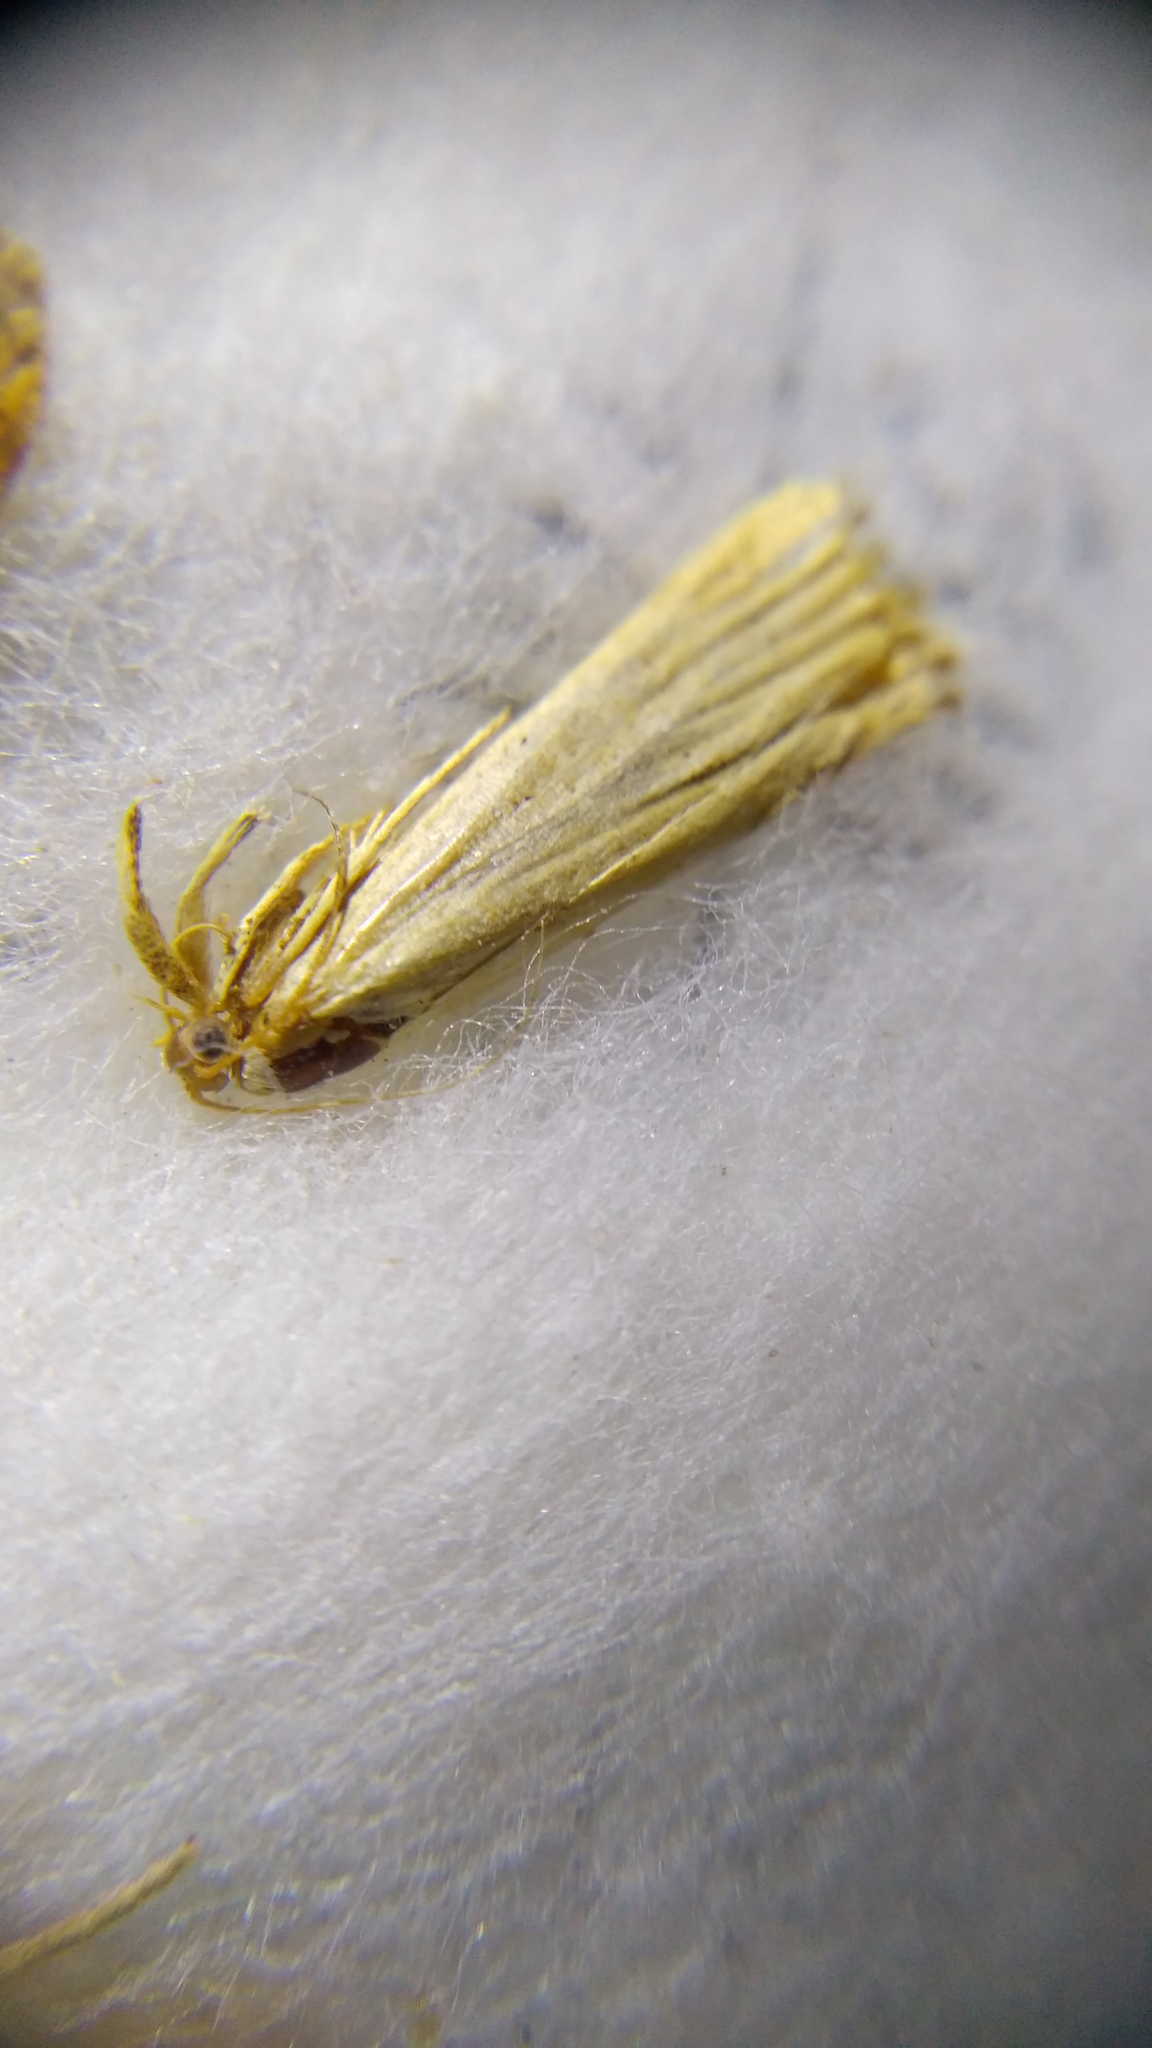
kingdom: Animalia
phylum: Arthropoda
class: Insecta
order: Lepidoptera
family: Crambidae
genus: Agriphila
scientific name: Agriphila straminella
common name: Straw grass-veneer
